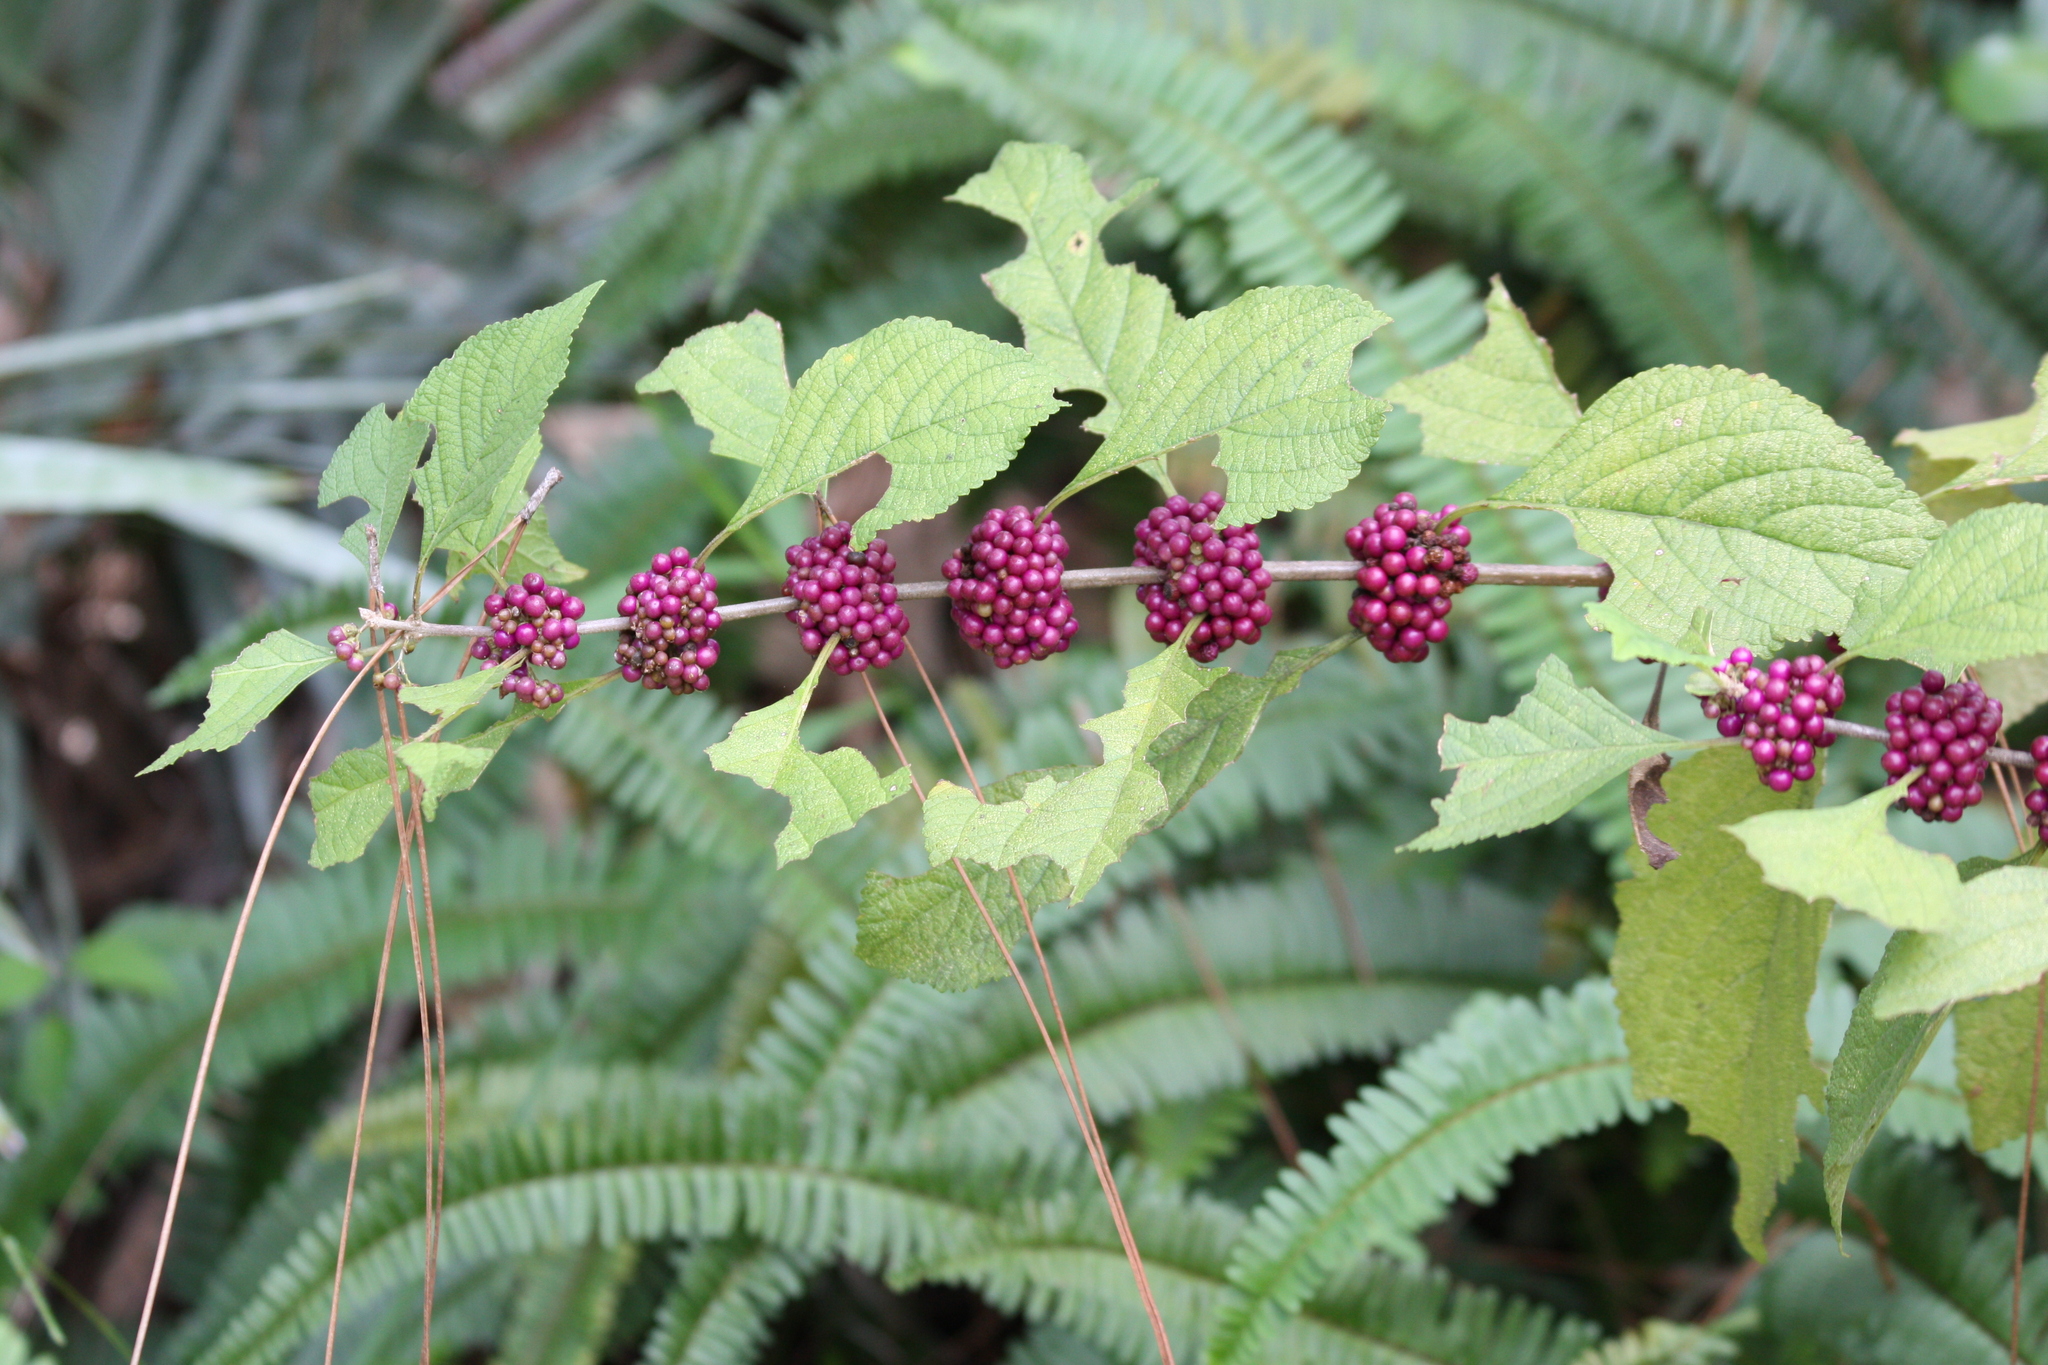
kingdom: Plantae
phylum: Tracheophyta
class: Magnoliopsida
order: Lamiales
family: Lamiaceae
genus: Callicarpa
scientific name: Callicarpa americana
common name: American beautyberry
